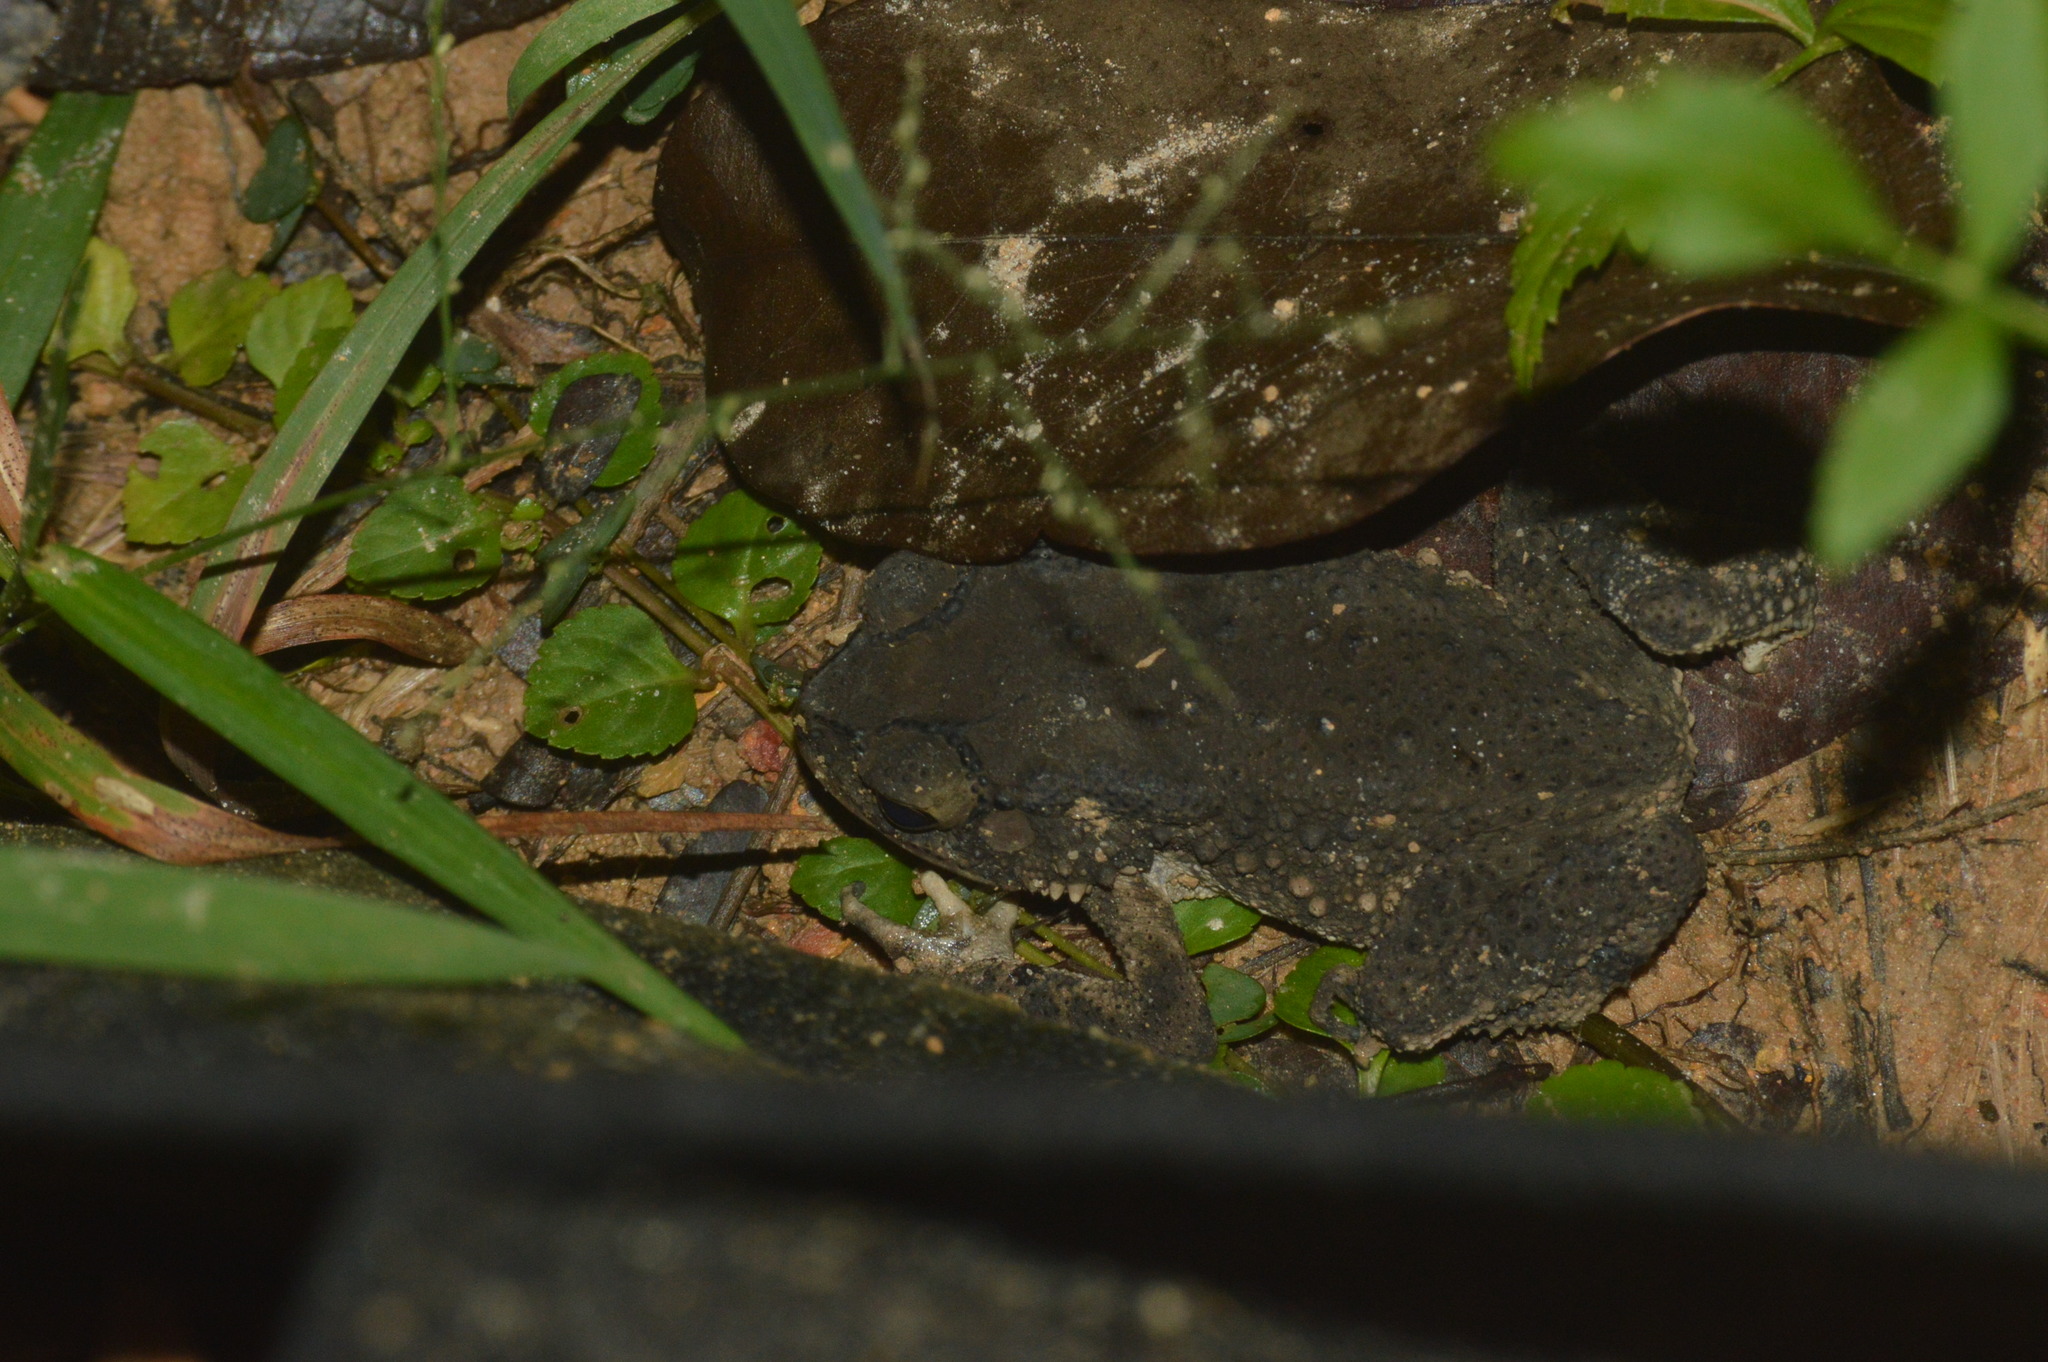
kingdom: Animalia
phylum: Chordata
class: Amphibia
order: Anura
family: Bufonidae
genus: Duttaphrynus
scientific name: Duttaphrynus melanostictus
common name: Common sunda toad
